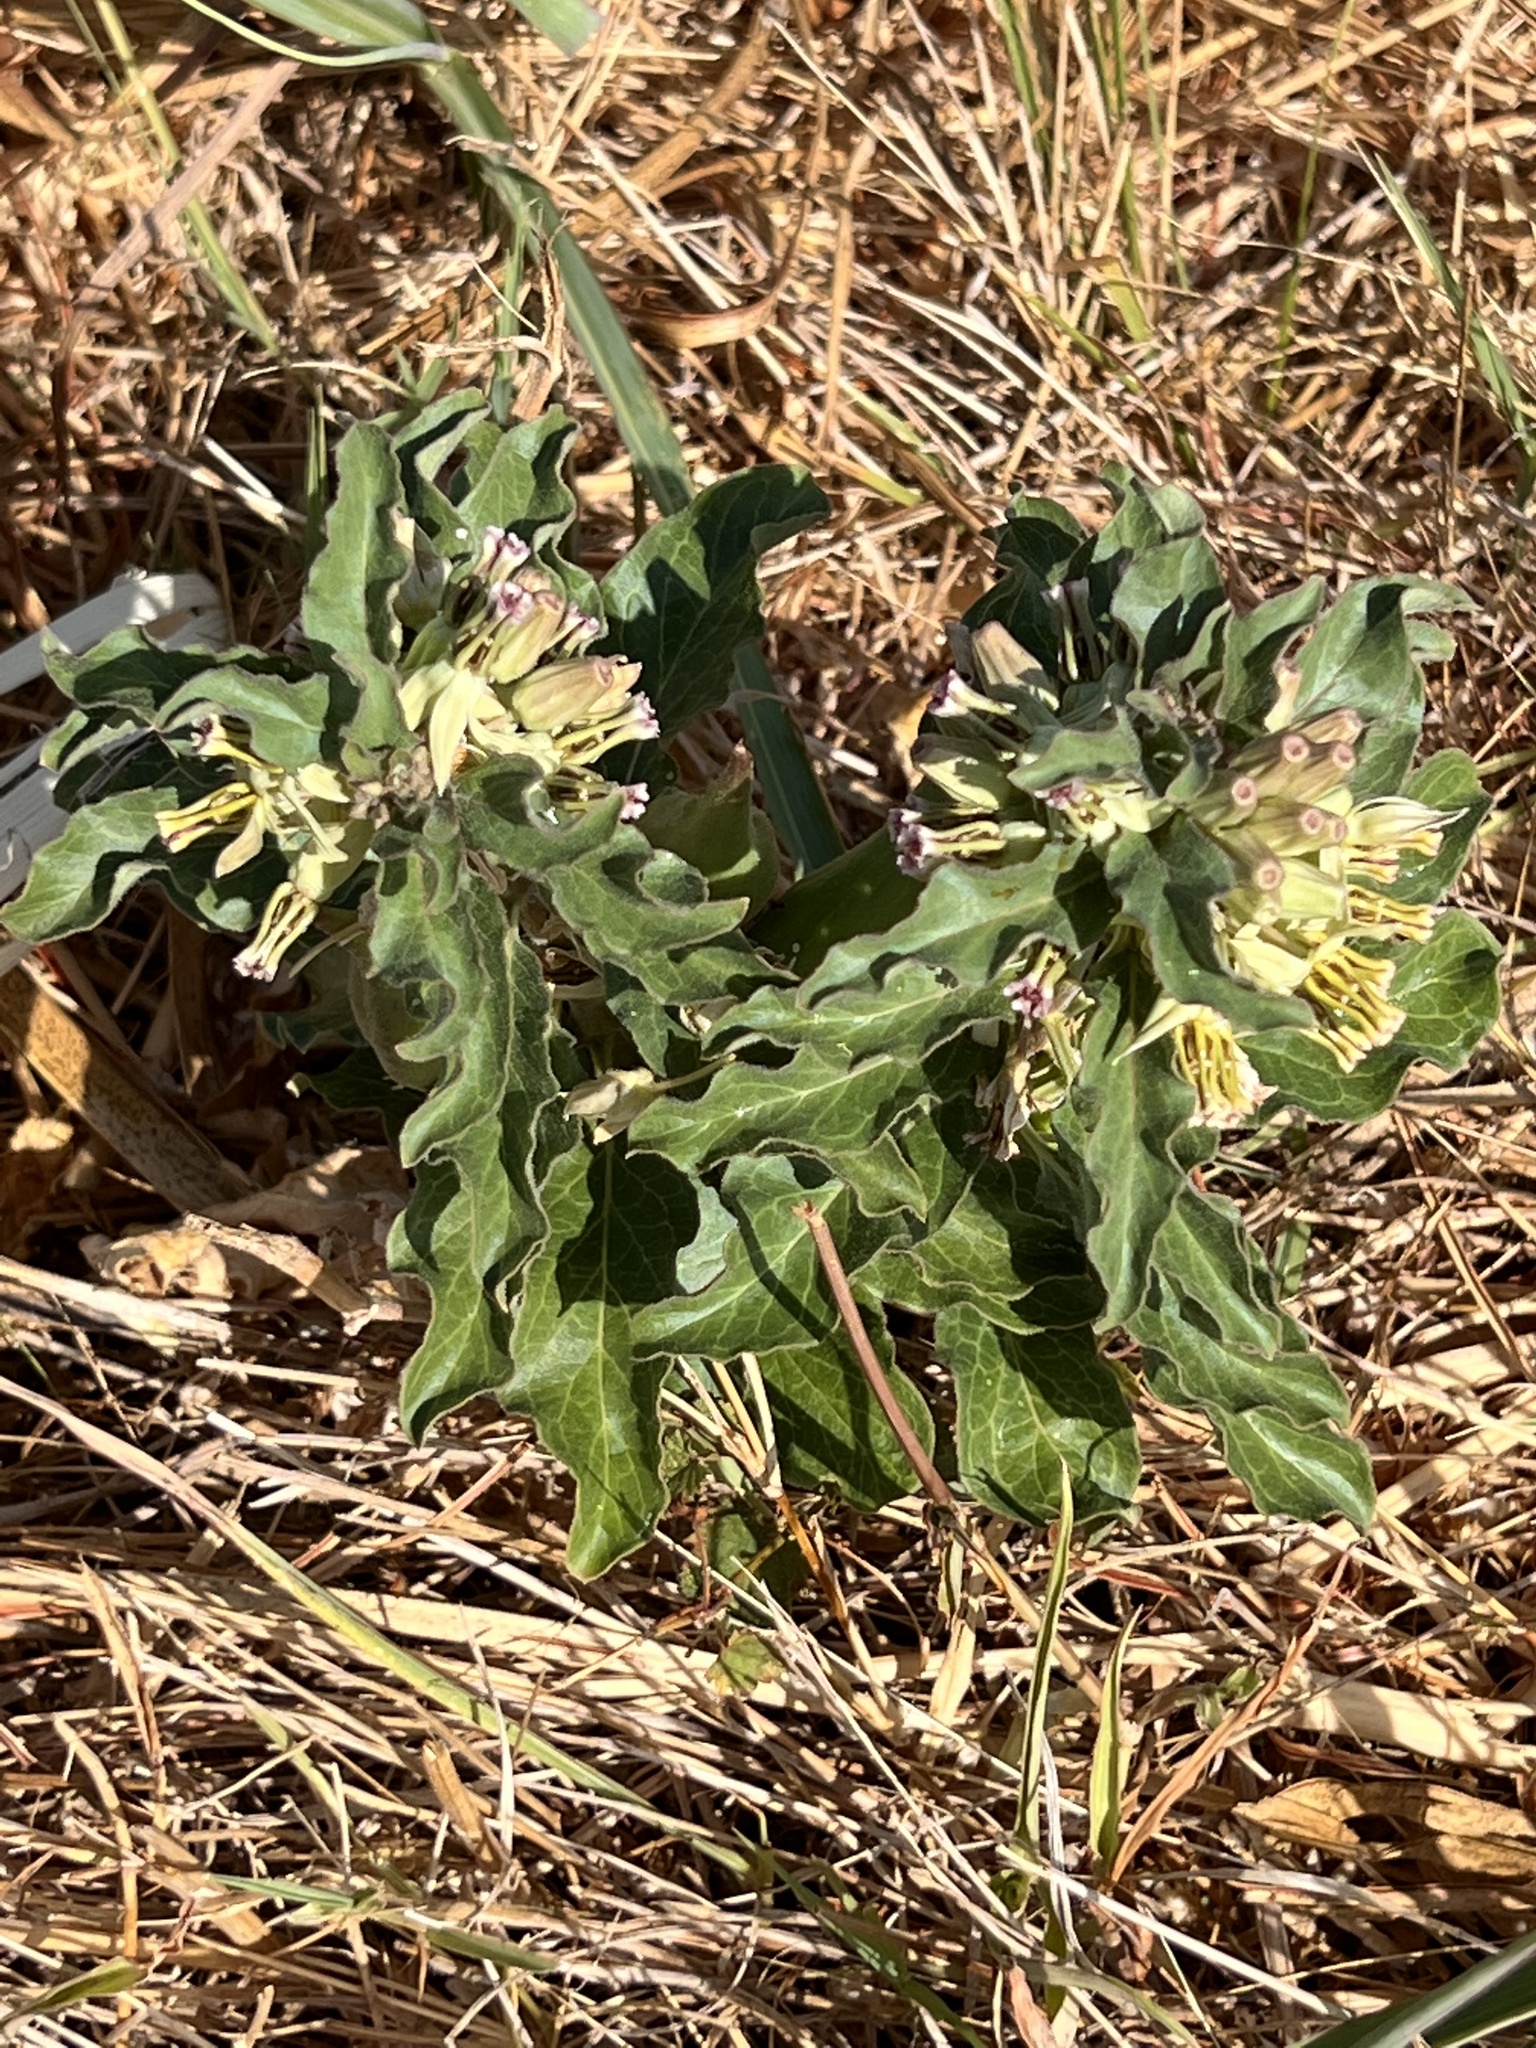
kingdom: Plantae
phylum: Tracheophyta
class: Magnoliopsida
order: Gentianales
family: Apocynaceae
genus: Asclepias
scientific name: Asclepias oenotheroides
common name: Zizotes milkweed
